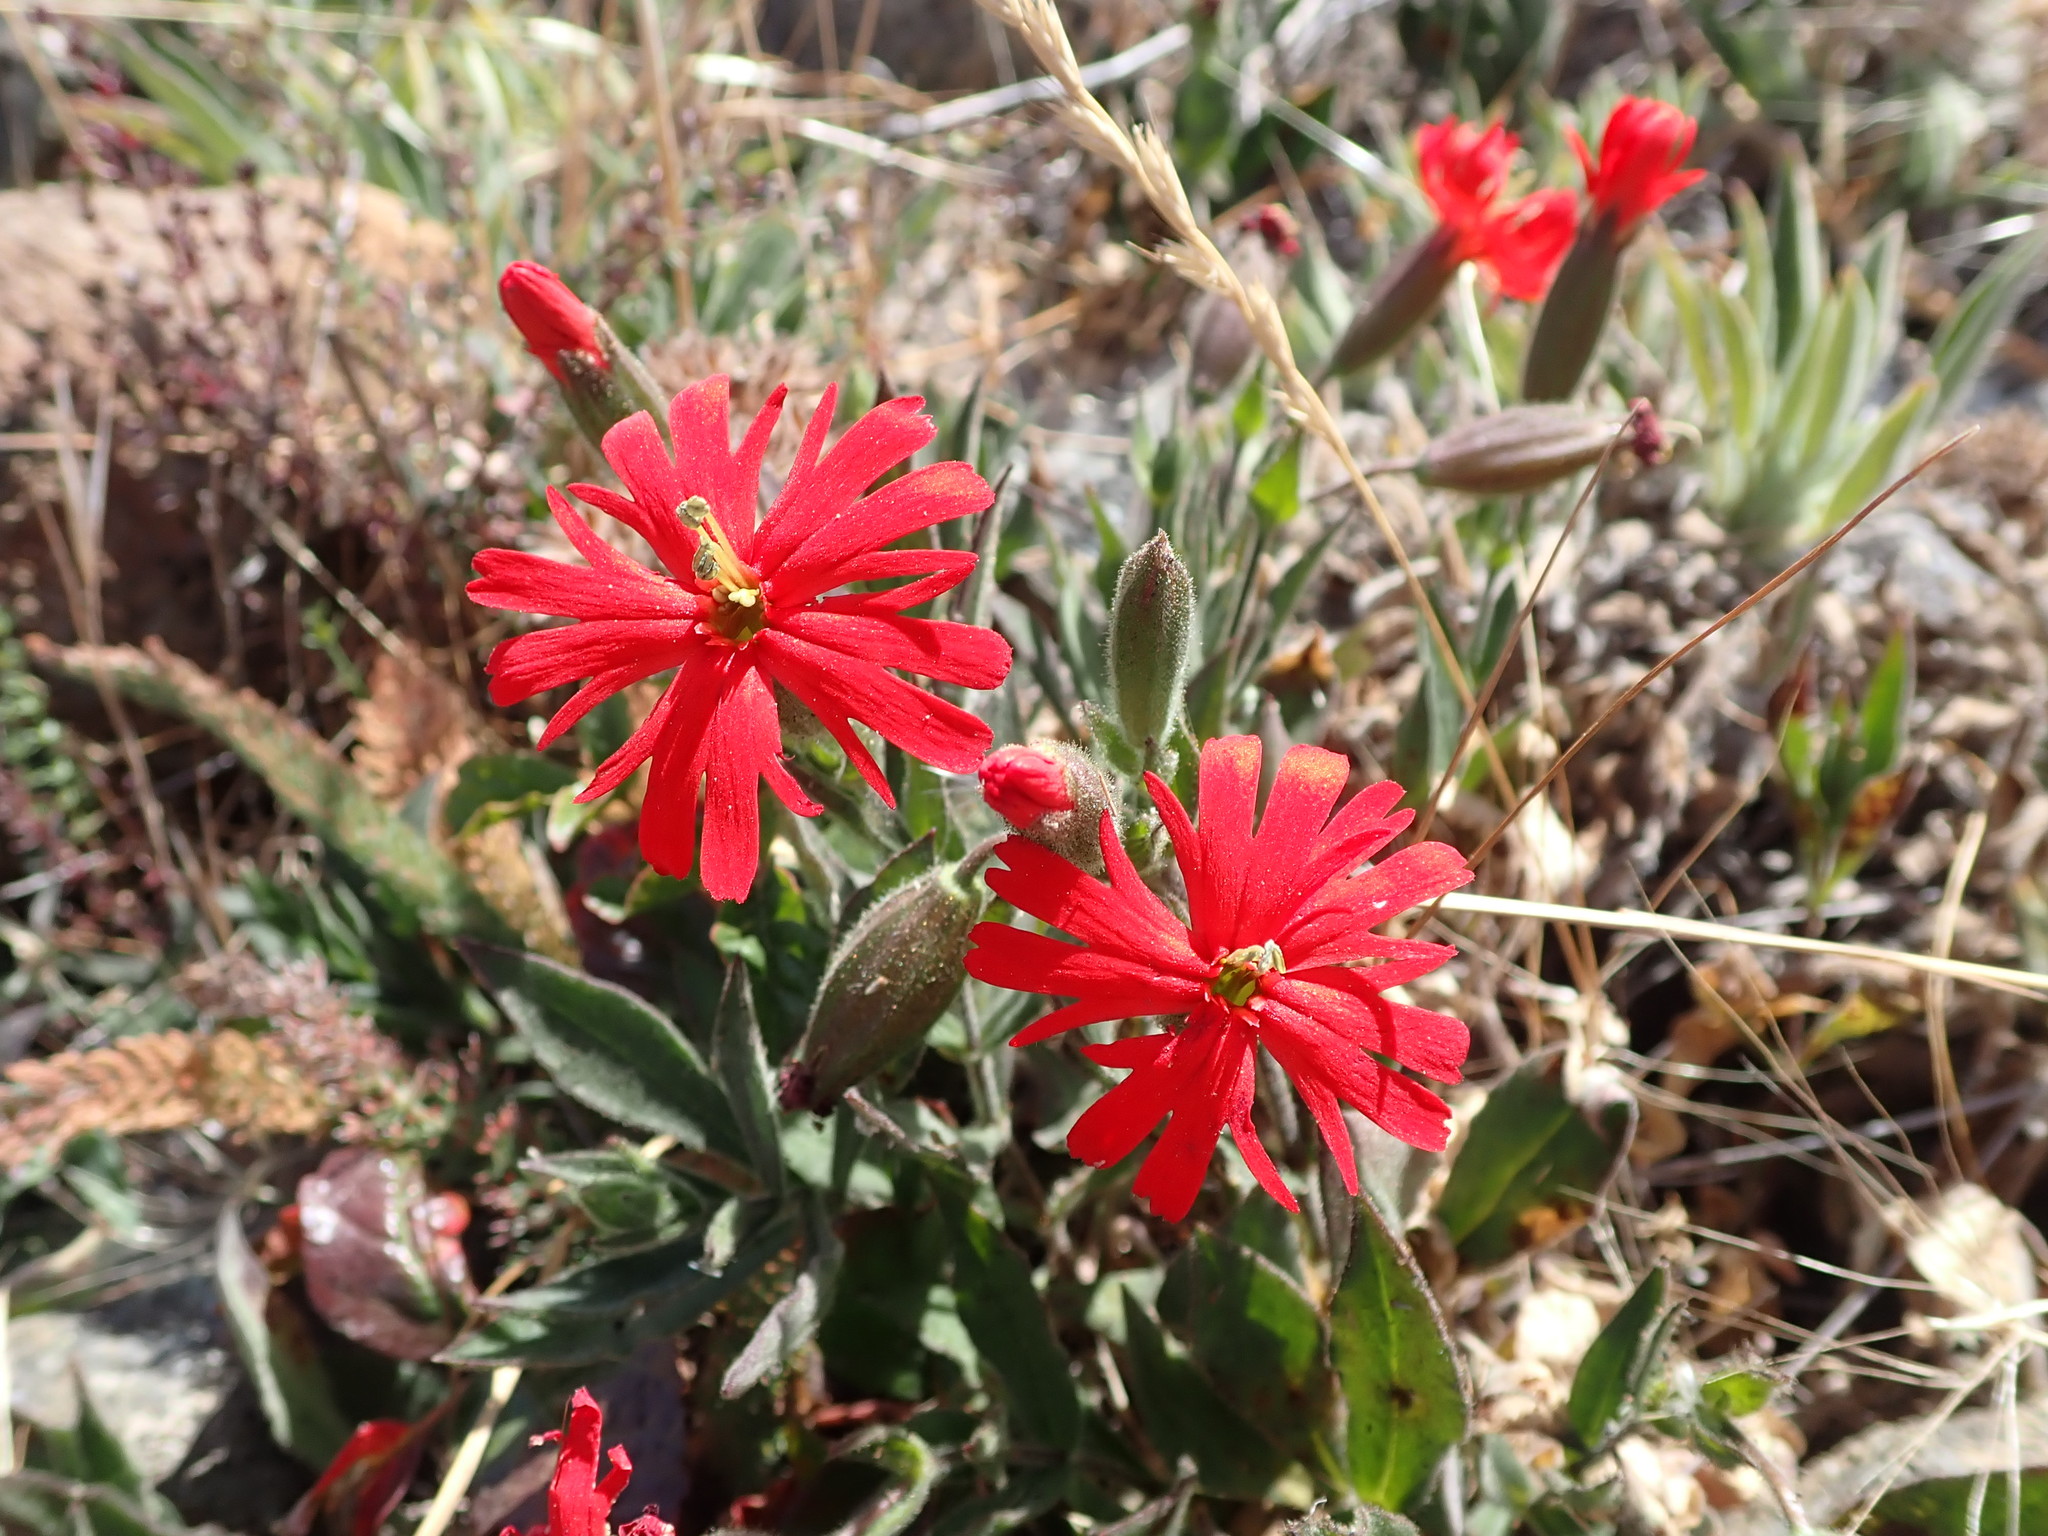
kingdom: Plantae
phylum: Tracheophyta
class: Magnoliopsida
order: Caryophyllales
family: Caryophyllaceae
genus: Silene
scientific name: Silene laciniata
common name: Indian-pink
